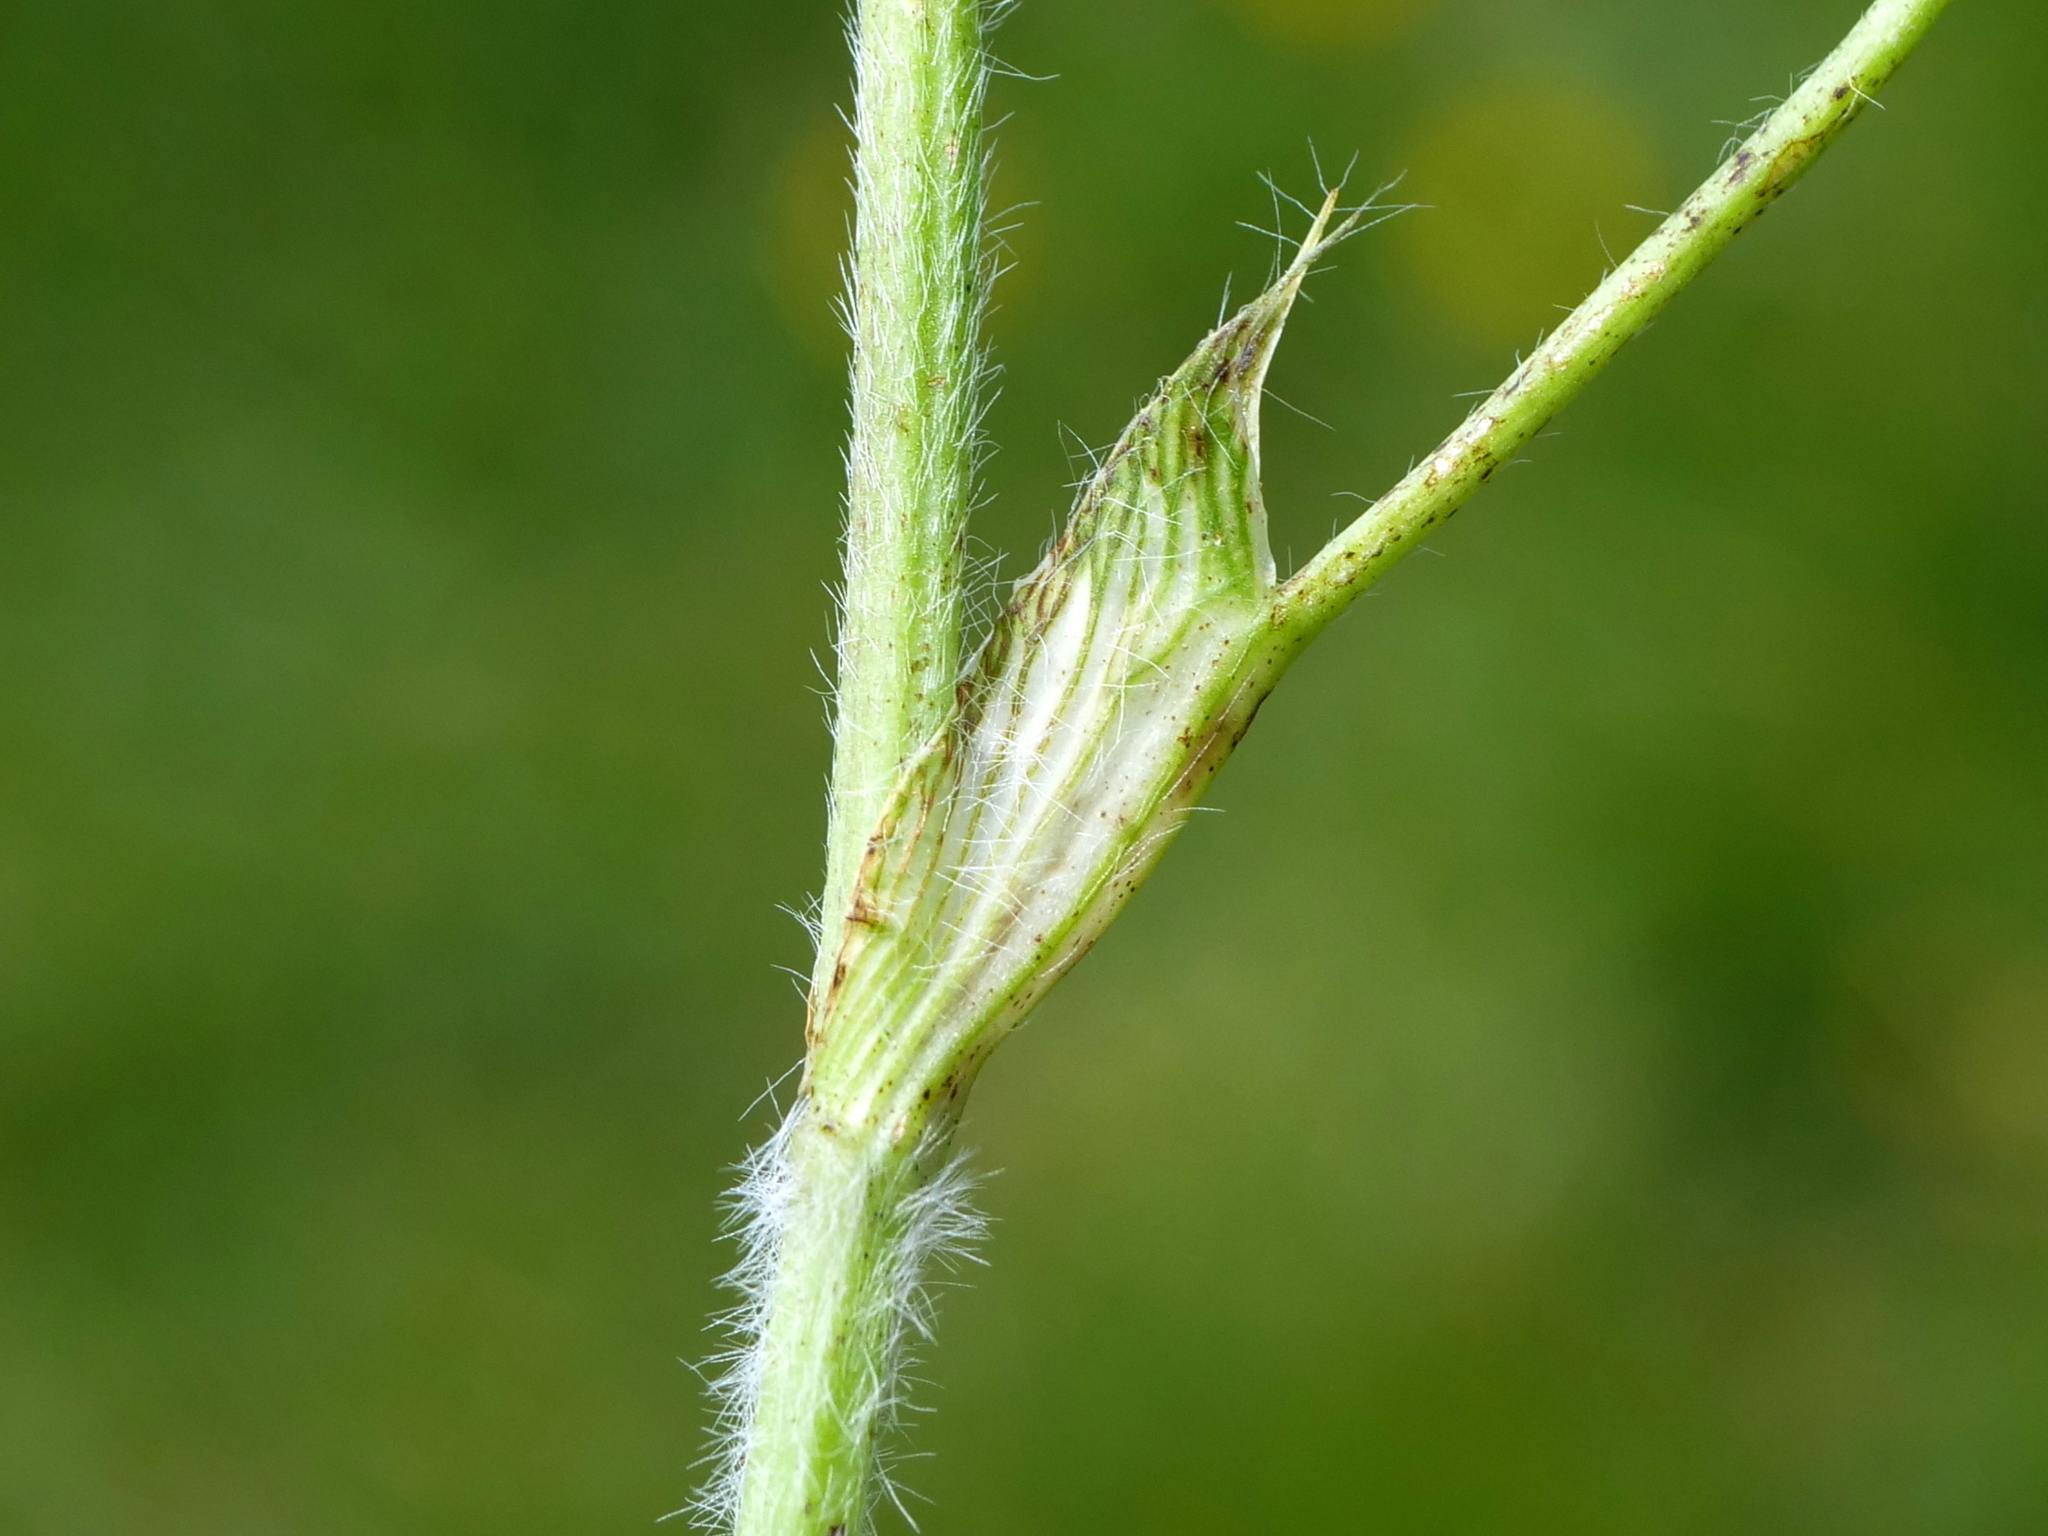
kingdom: Plantae
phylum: Tracheophyta
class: Magnoliopsida
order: Fabales
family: Fabaceae
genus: Trifolium
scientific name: Trifolium pratense
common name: Red clover
